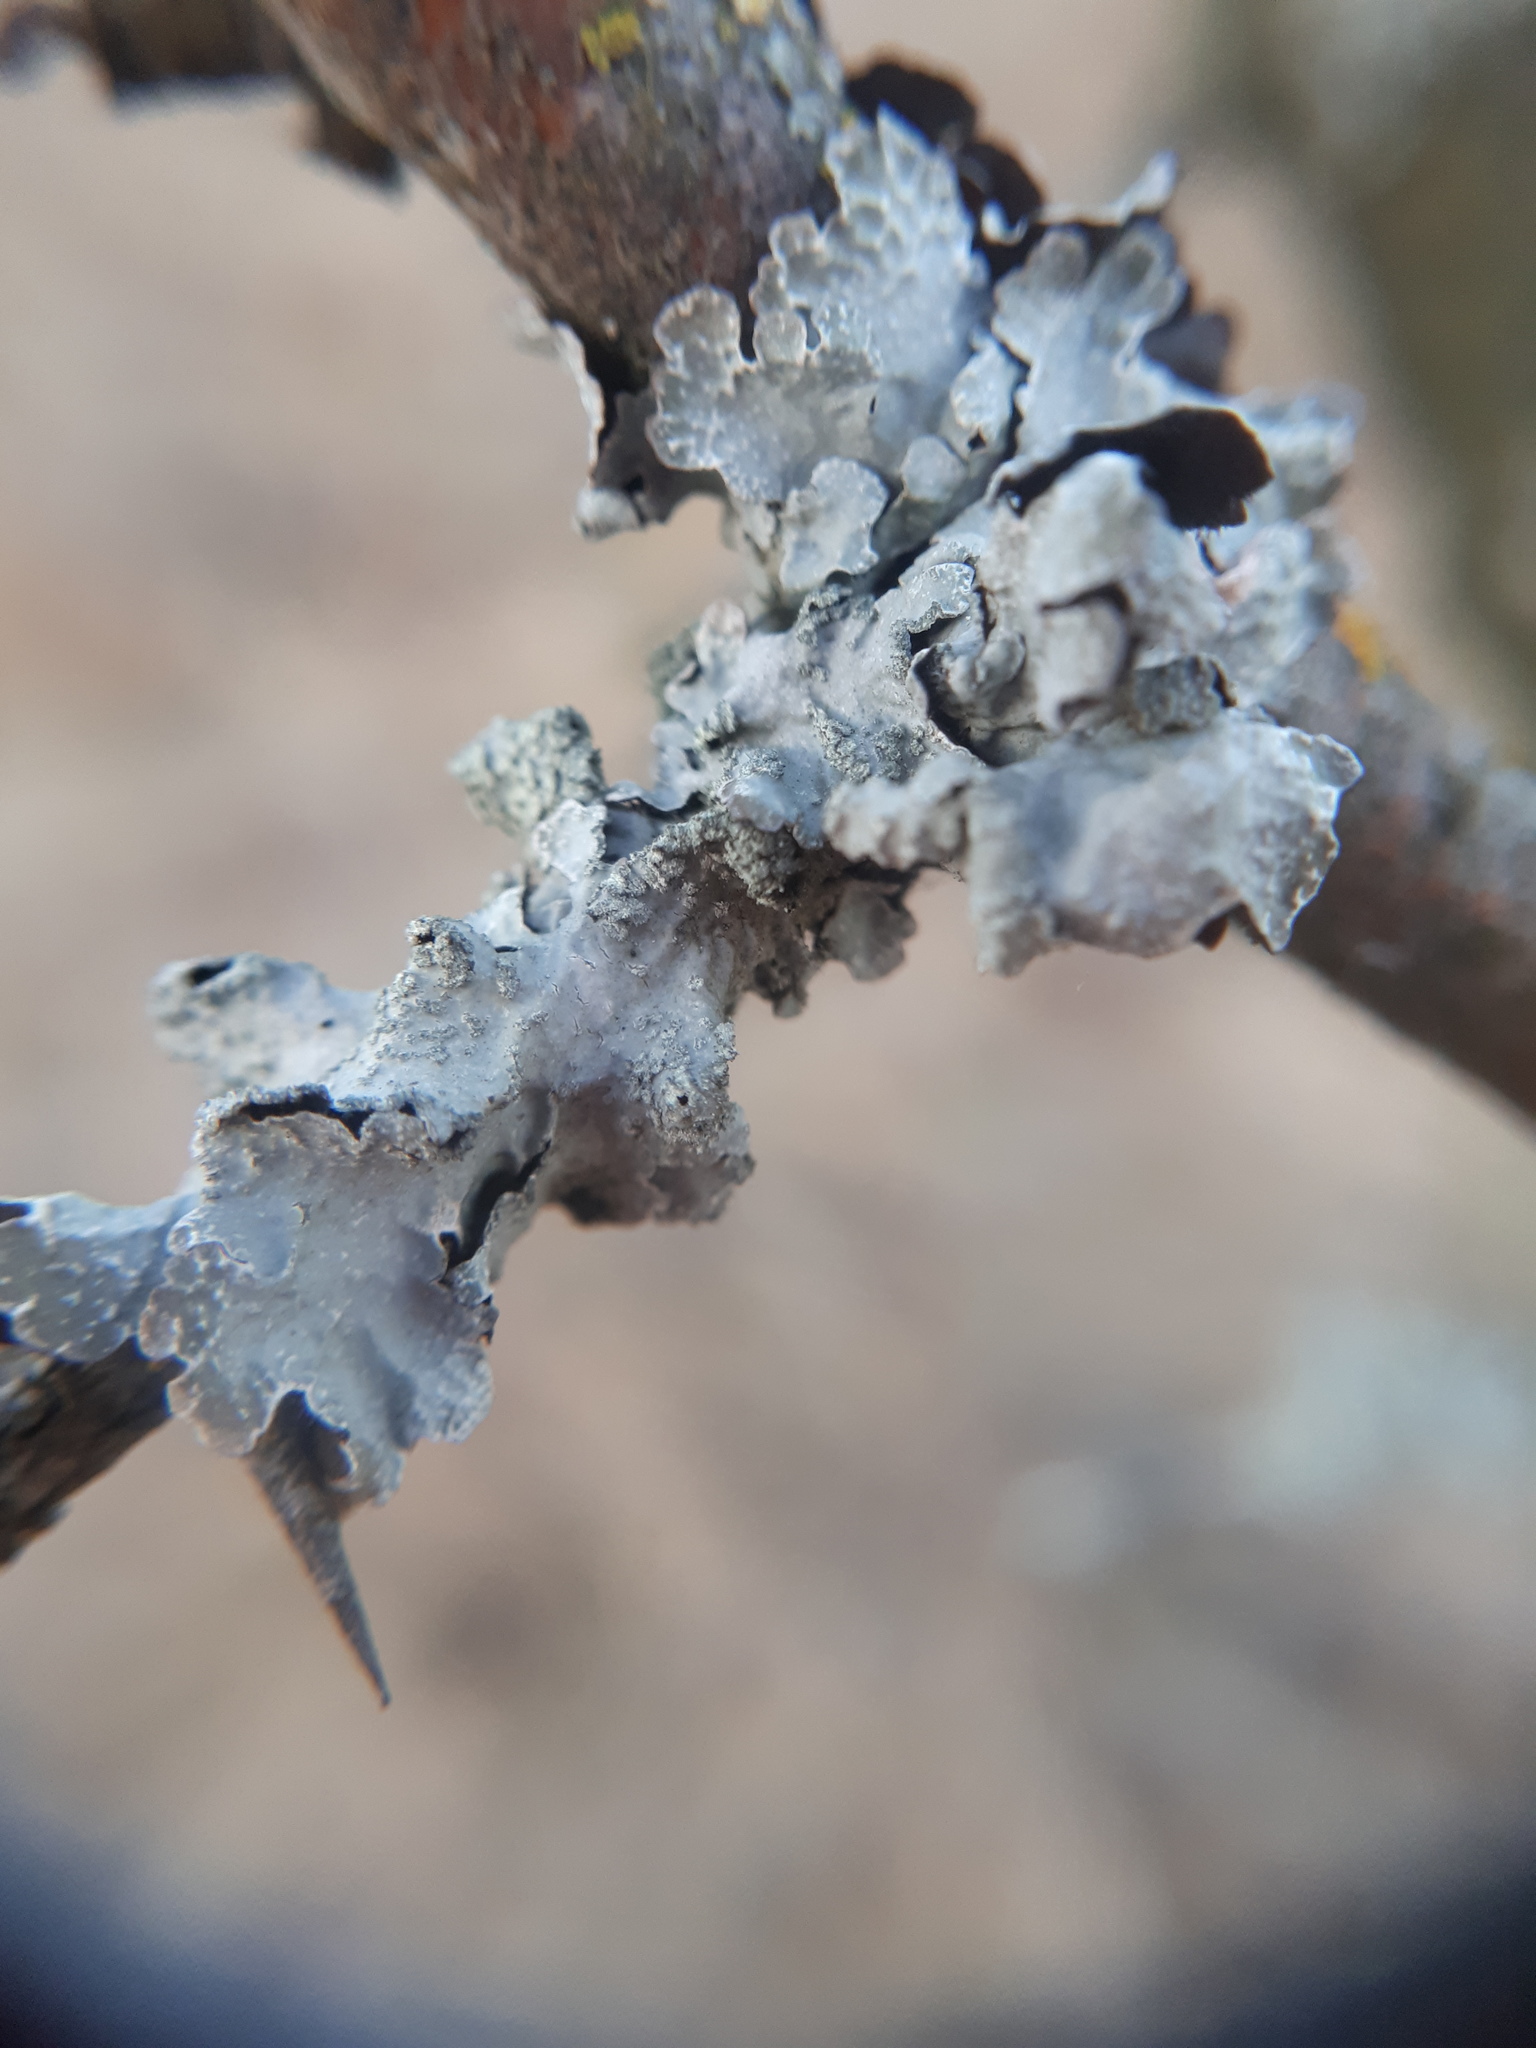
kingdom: Fungi
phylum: Ascomycota
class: Lecanoromycetes
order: Lecanorales
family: Parmeliaceae
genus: Parmelia
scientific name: Parmelia sulcata
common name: Netted shield lichen
